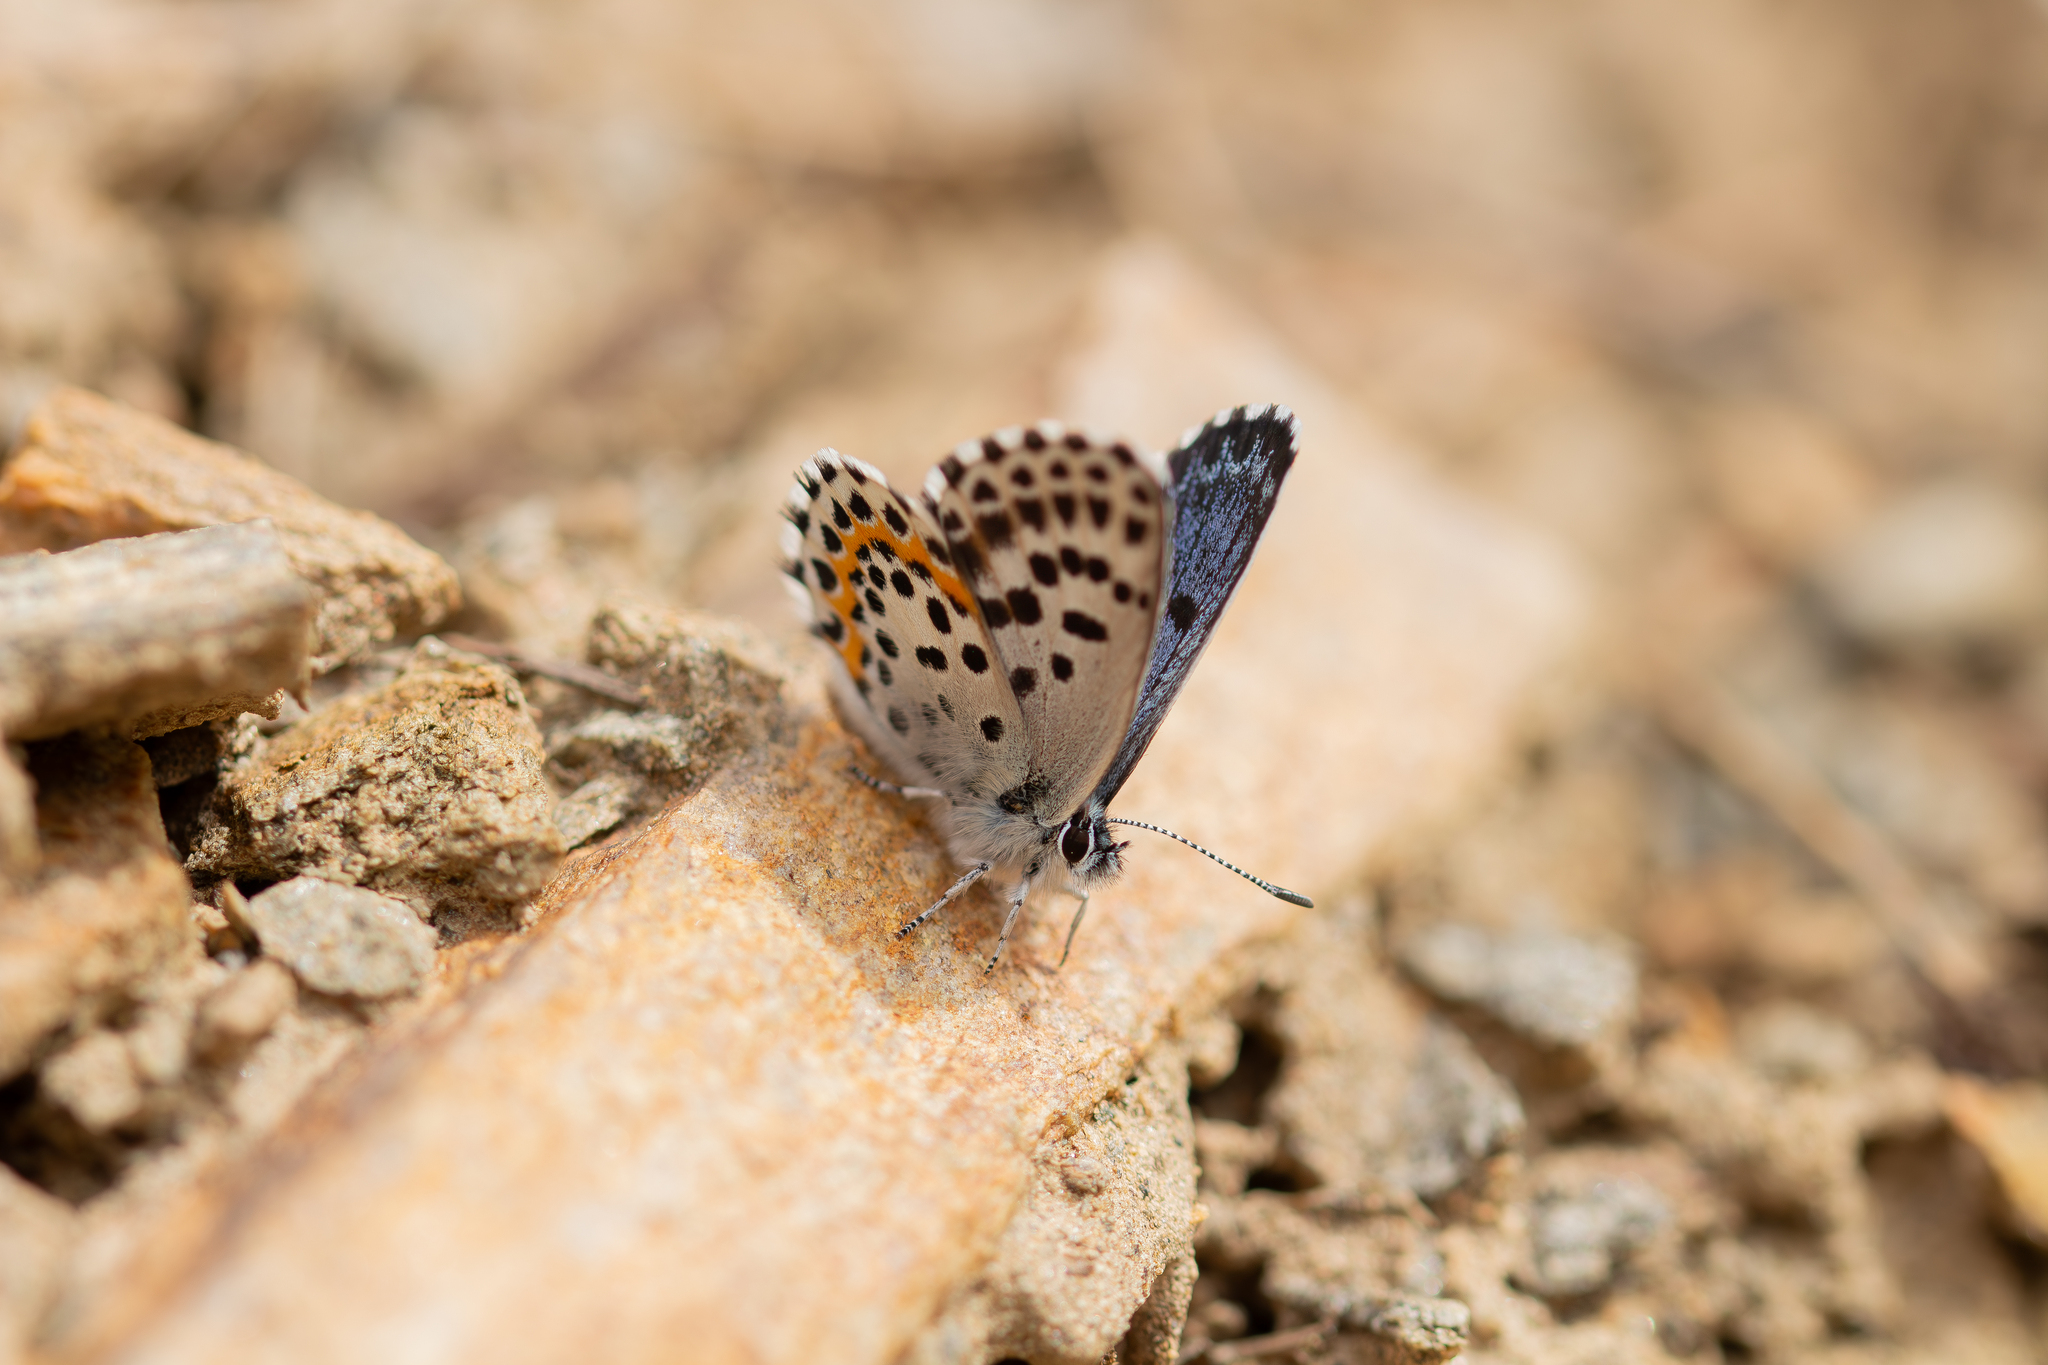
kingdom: Animalia
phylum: Arthropoda
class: Insecta
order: Lepidoptera
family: Lycaenidae
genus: Scolitantides
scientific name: Scolitantides orion
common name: Chequered blue
